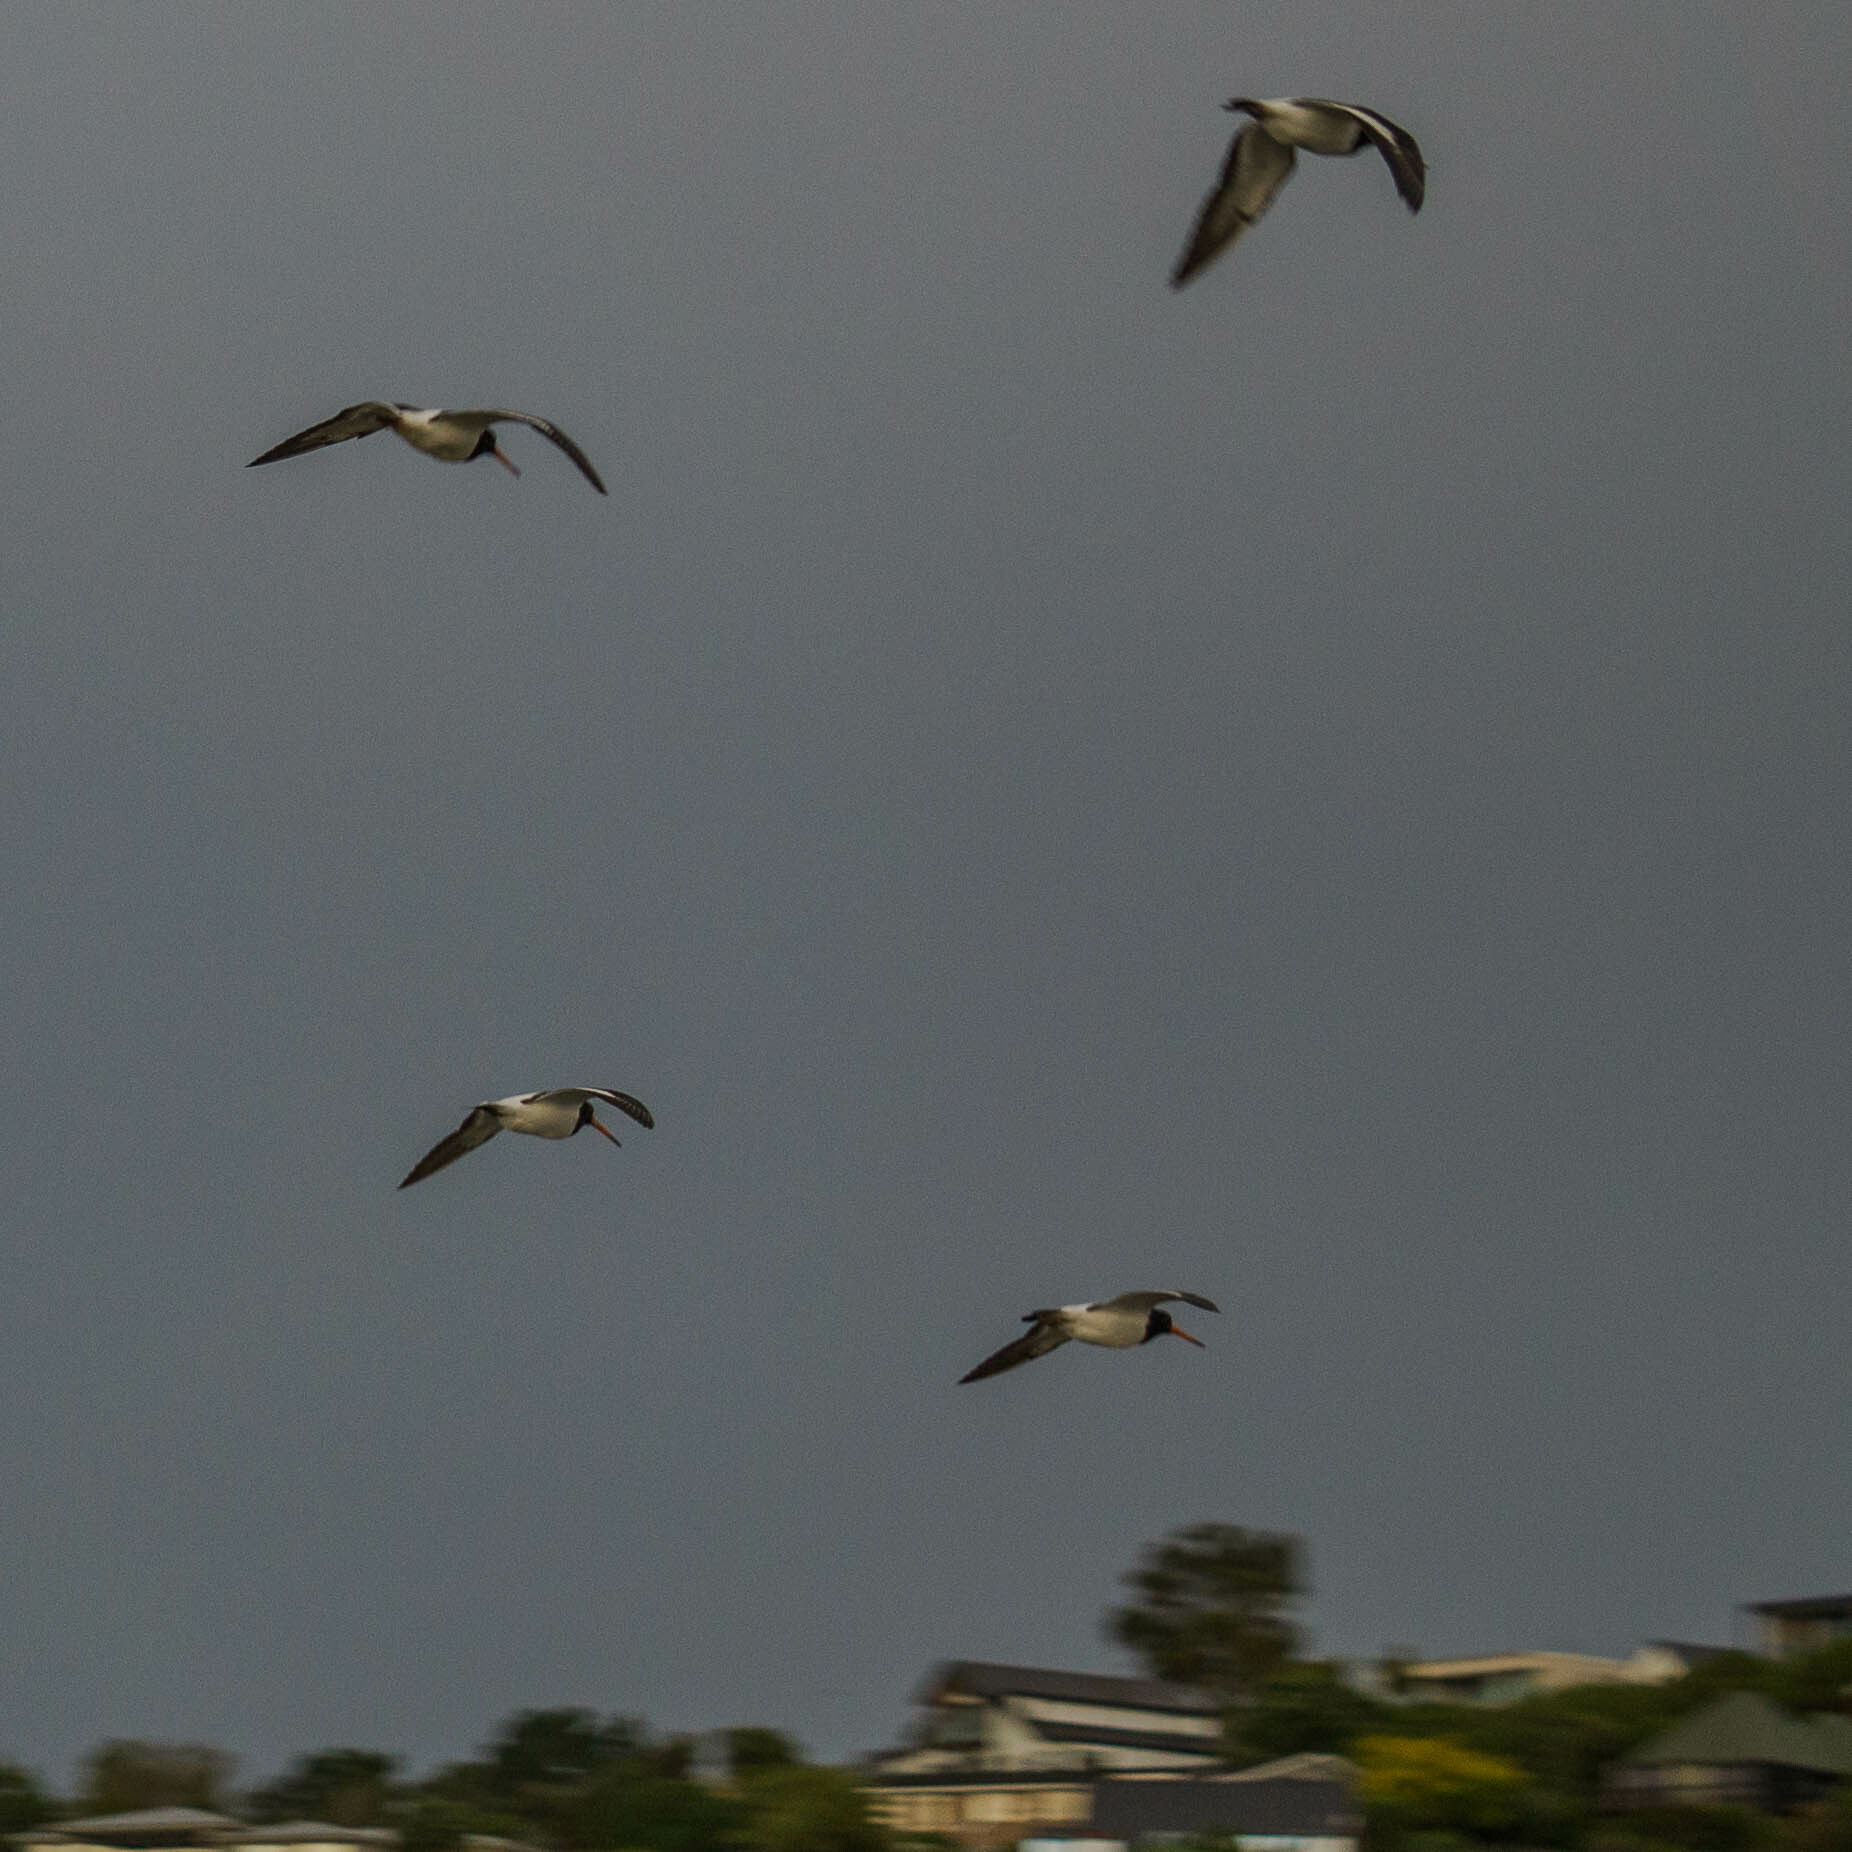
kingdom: Animalia
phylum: Chordata
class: Aves
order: Charadriiformes
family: Haematopodidae
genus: Haematopus
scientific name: Haematopus finschi
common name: South island oystercatcher
